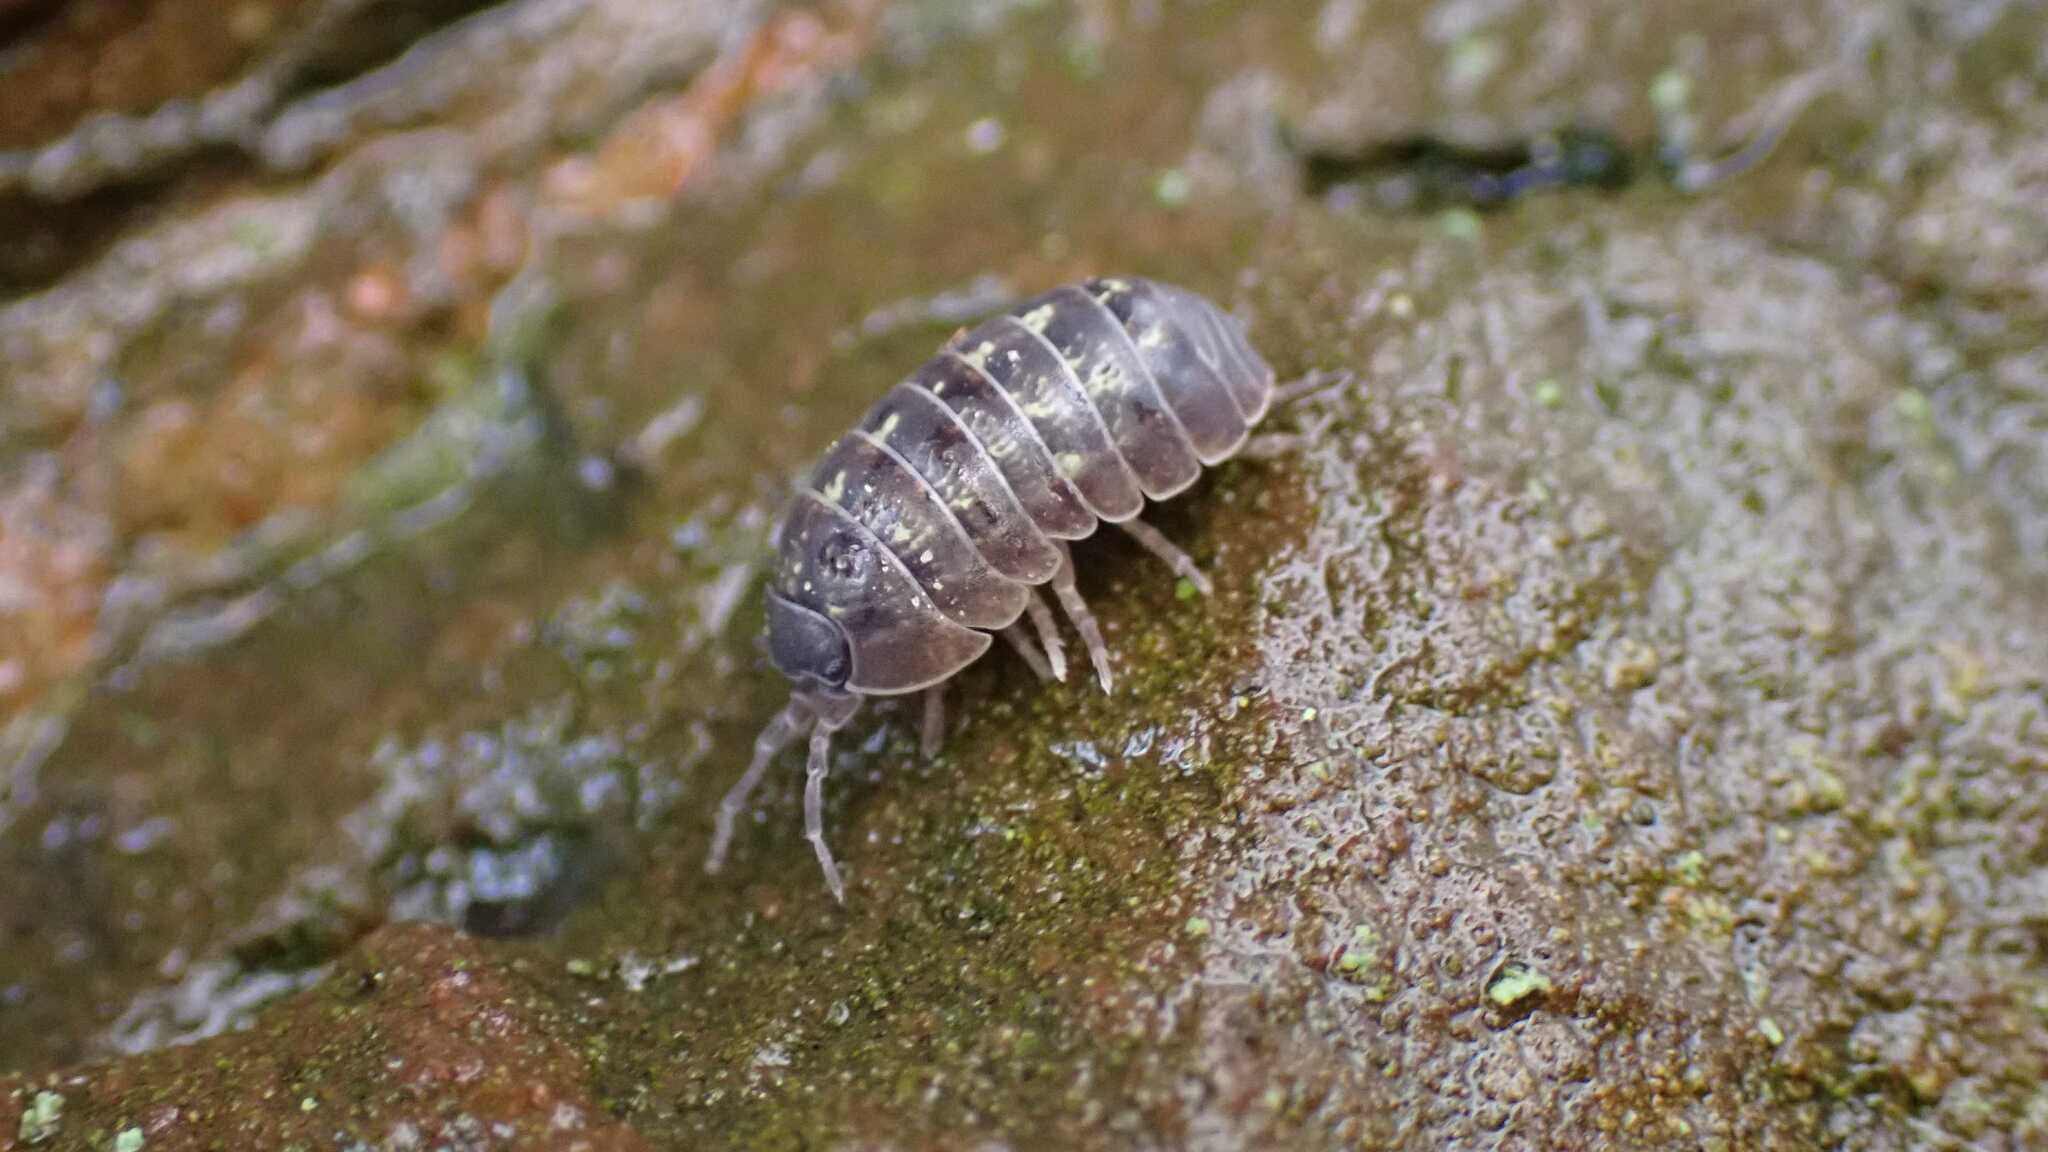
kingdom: Animalia
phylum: Arthropoda
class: Malacostraca
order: Isopoda
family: Armadillidiidae
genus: Armadillidium
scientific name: Armadillidium vulgare
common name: Common pill woodlouse
